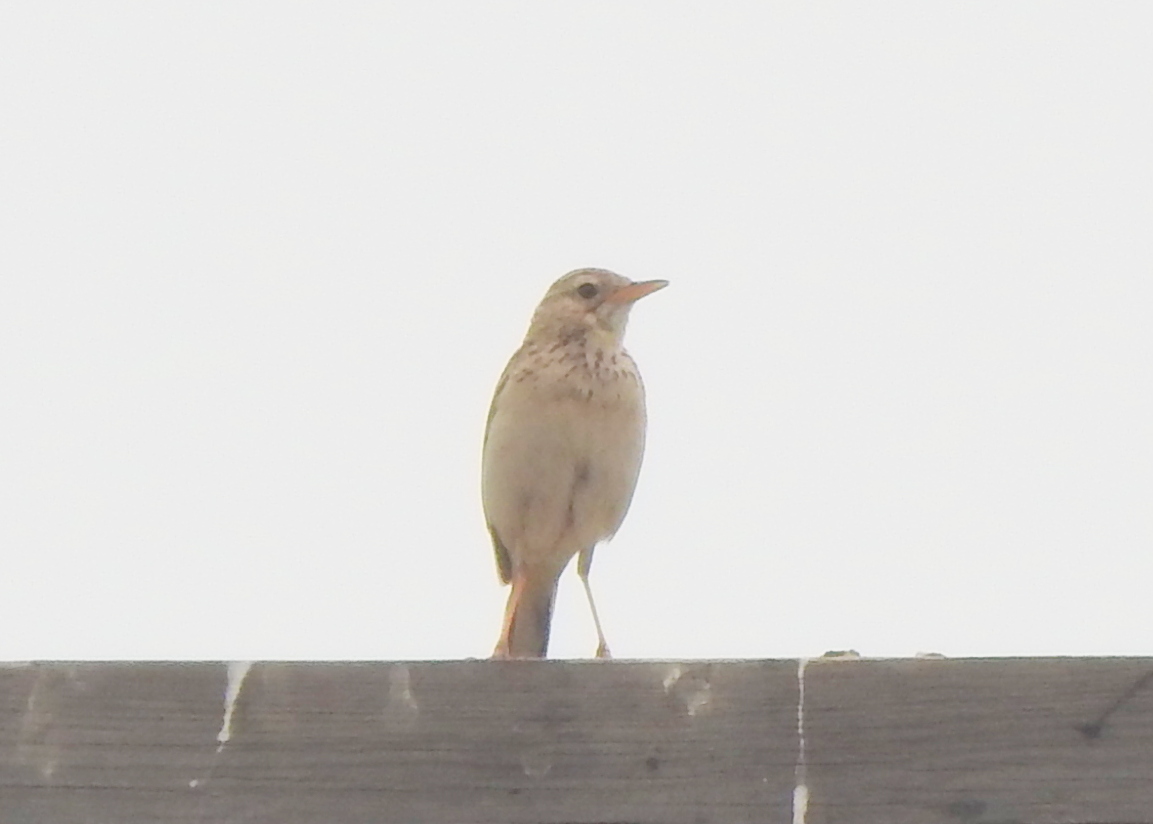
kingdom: Animalia
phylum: Chordata
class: Aves
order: Passeriformes
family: Motacillidae
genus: Anthus
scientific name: Anthus richardi
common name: Richard's pipit
